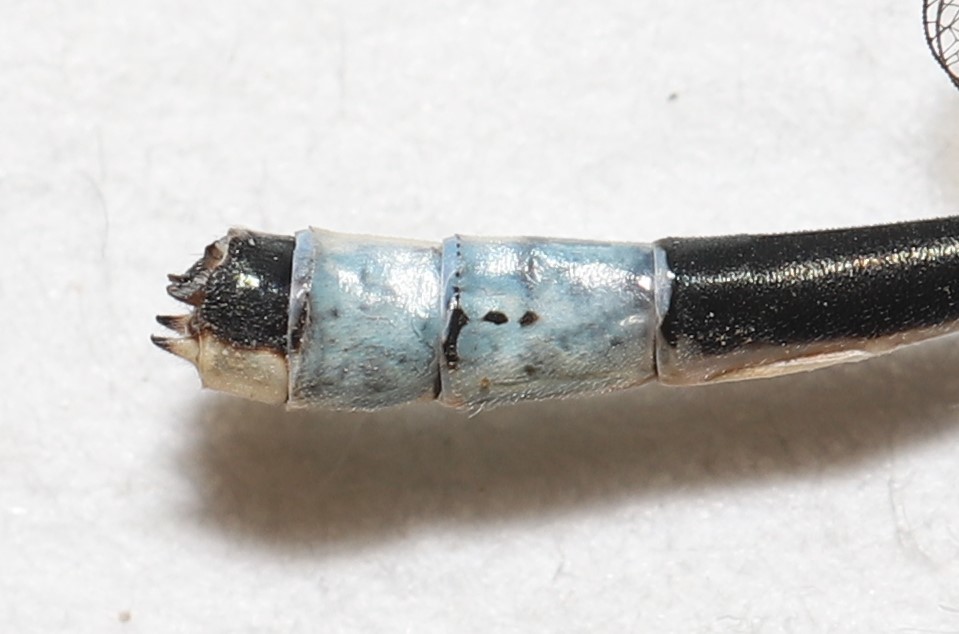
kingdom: Animalia
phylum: Arthropoda
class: Insecta
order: Odonata
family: Coenagrionidae
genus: Enallagma
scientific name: Enallagma hageni
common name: Hagen's bluet
